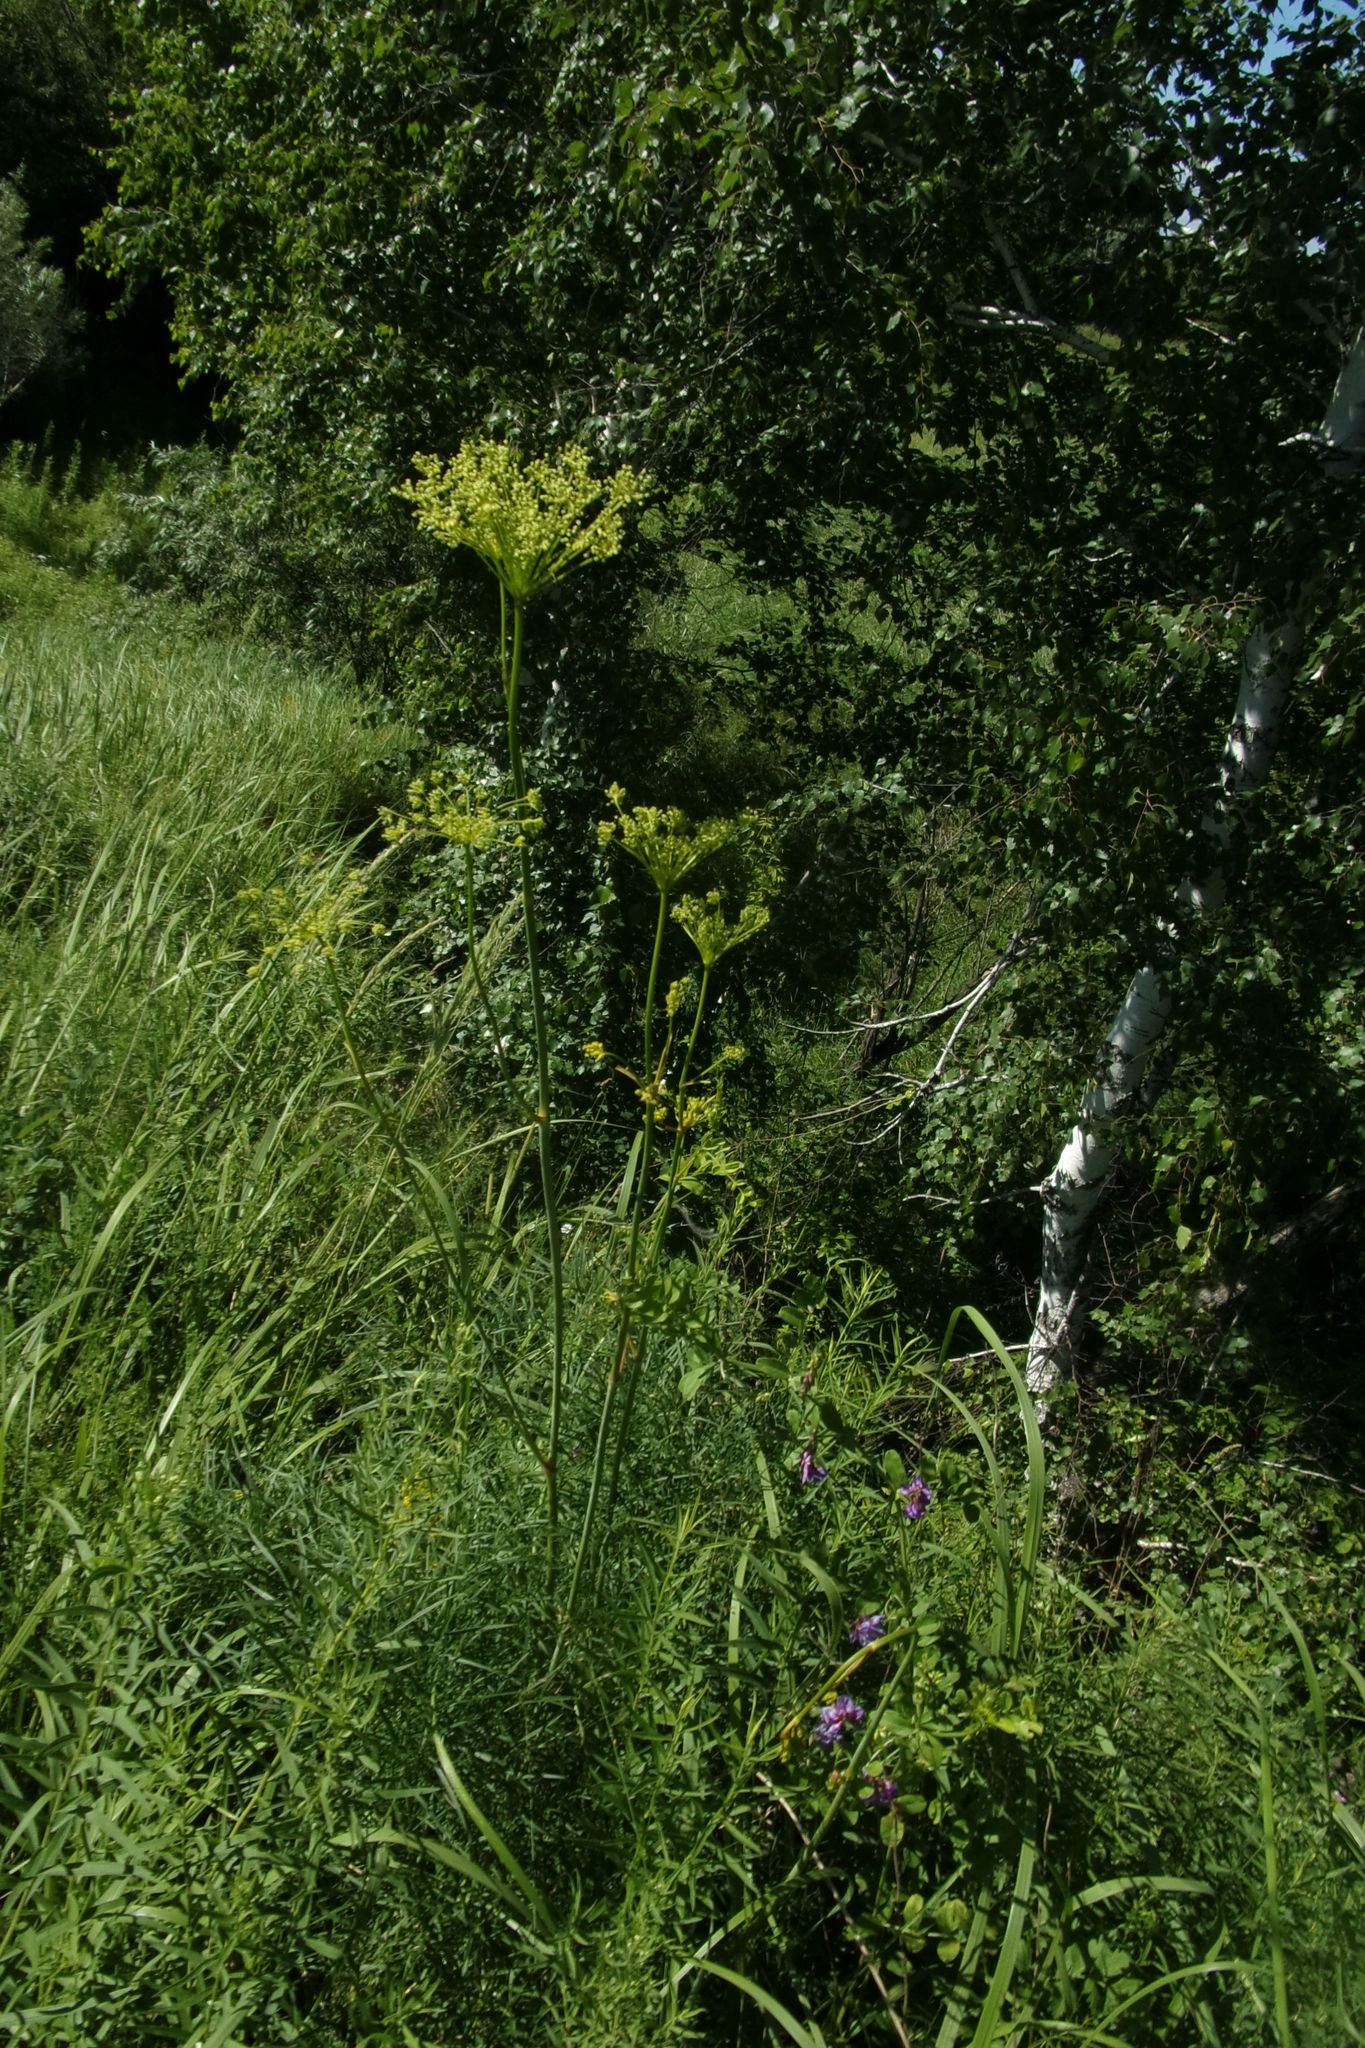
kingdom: Plantae
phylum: Tracheophyta
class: Magnoliopsida
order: Apiales
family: Apiaceae
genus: Peucedanum
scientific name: Peucedanum morisonii
